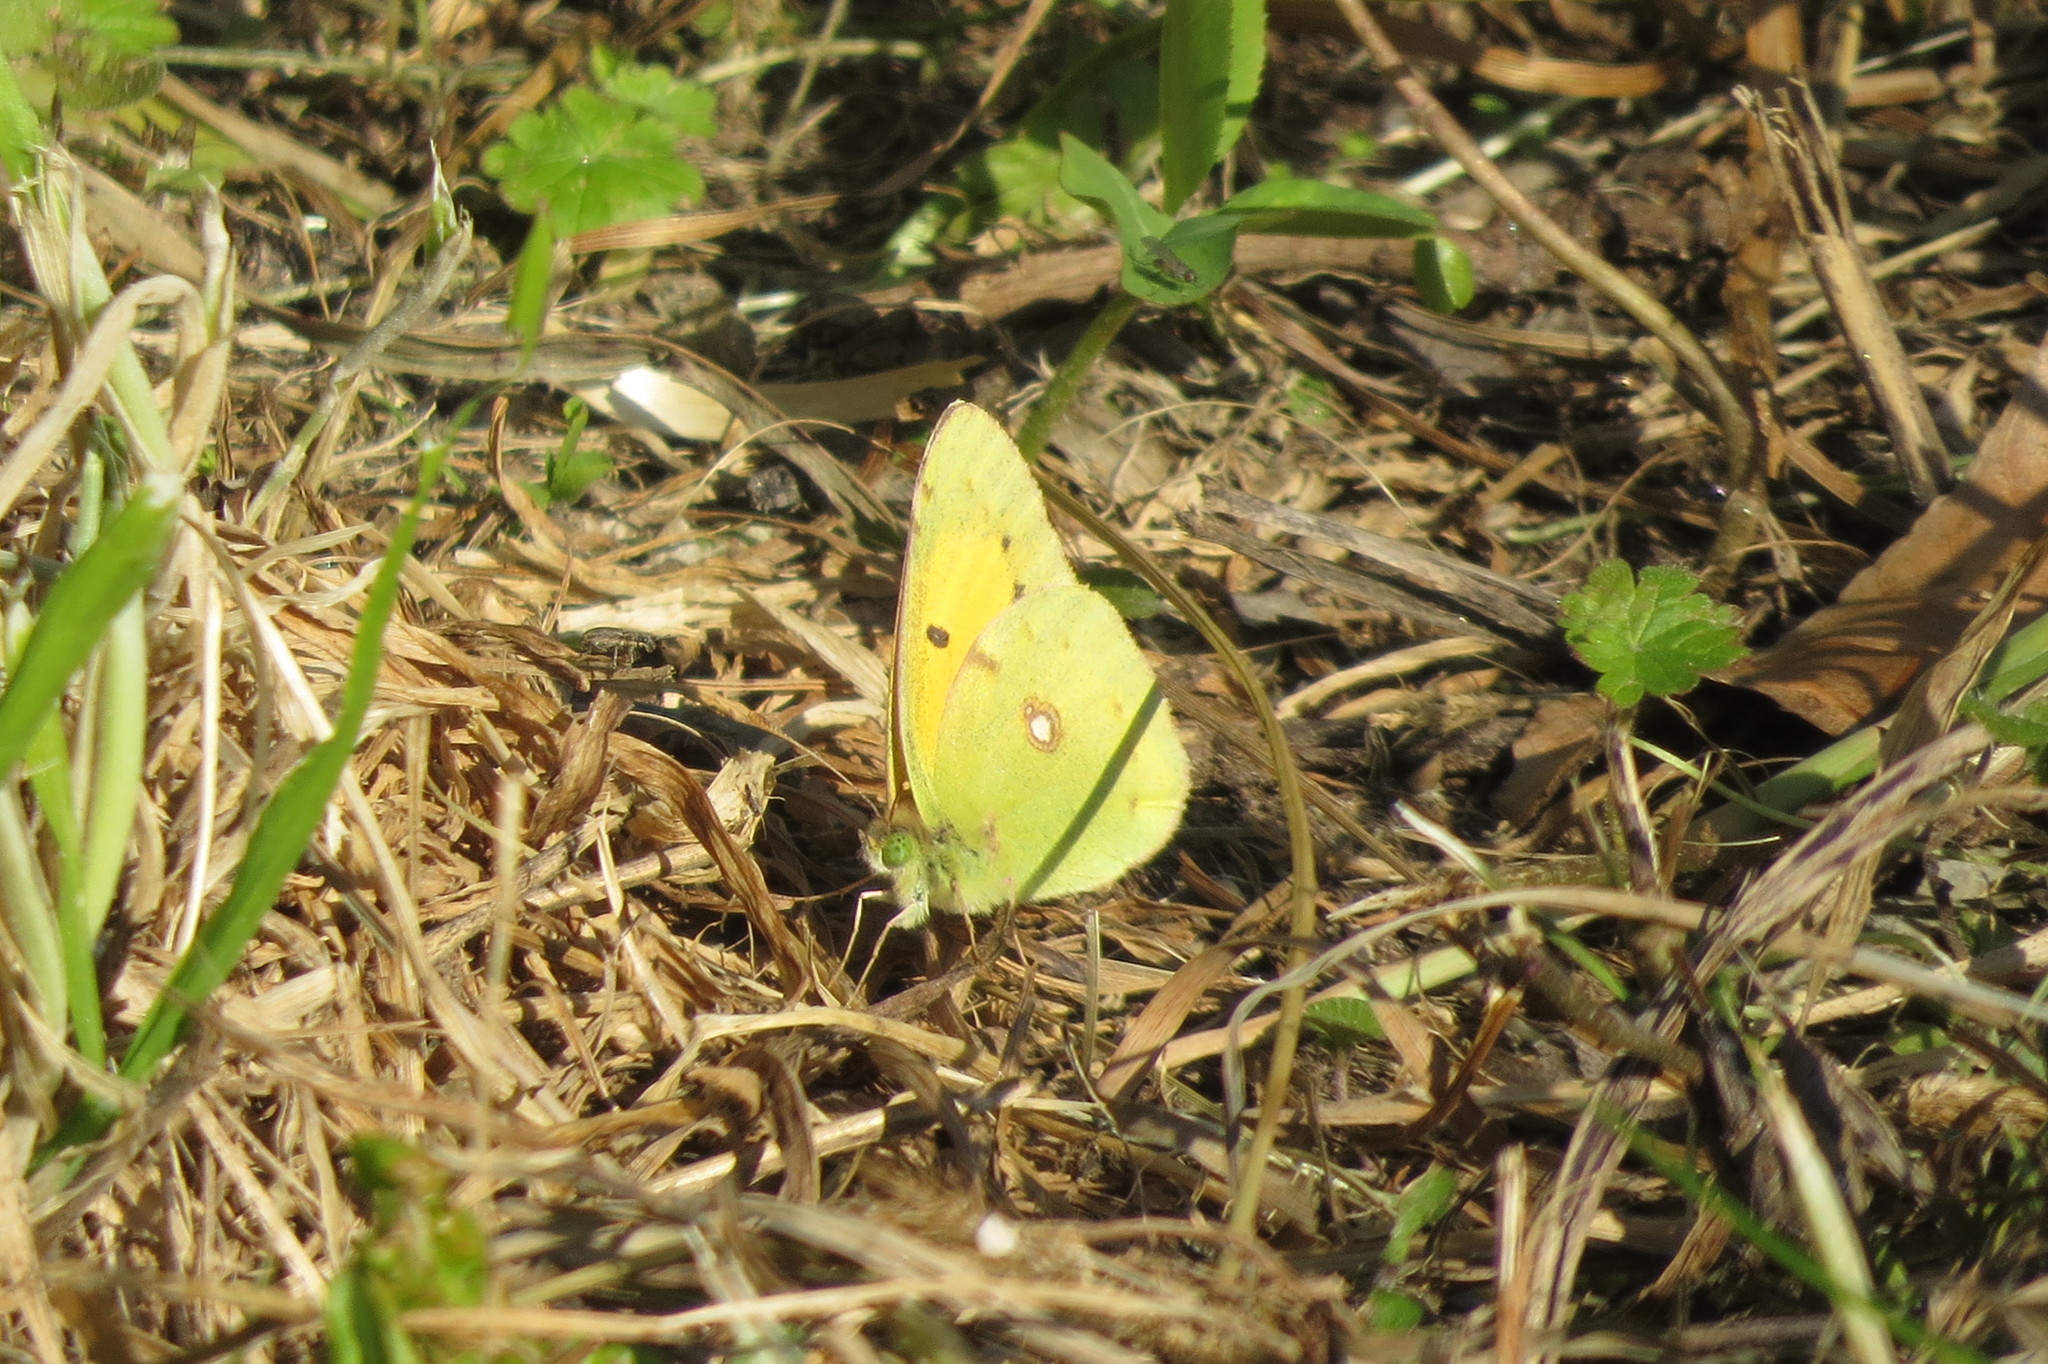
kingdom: Animalia
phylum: Arthropoda
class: Insecta
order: Lepidoptera
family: Pieridae
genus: Colias
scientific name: Colias croceus
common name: Clouded yellow
